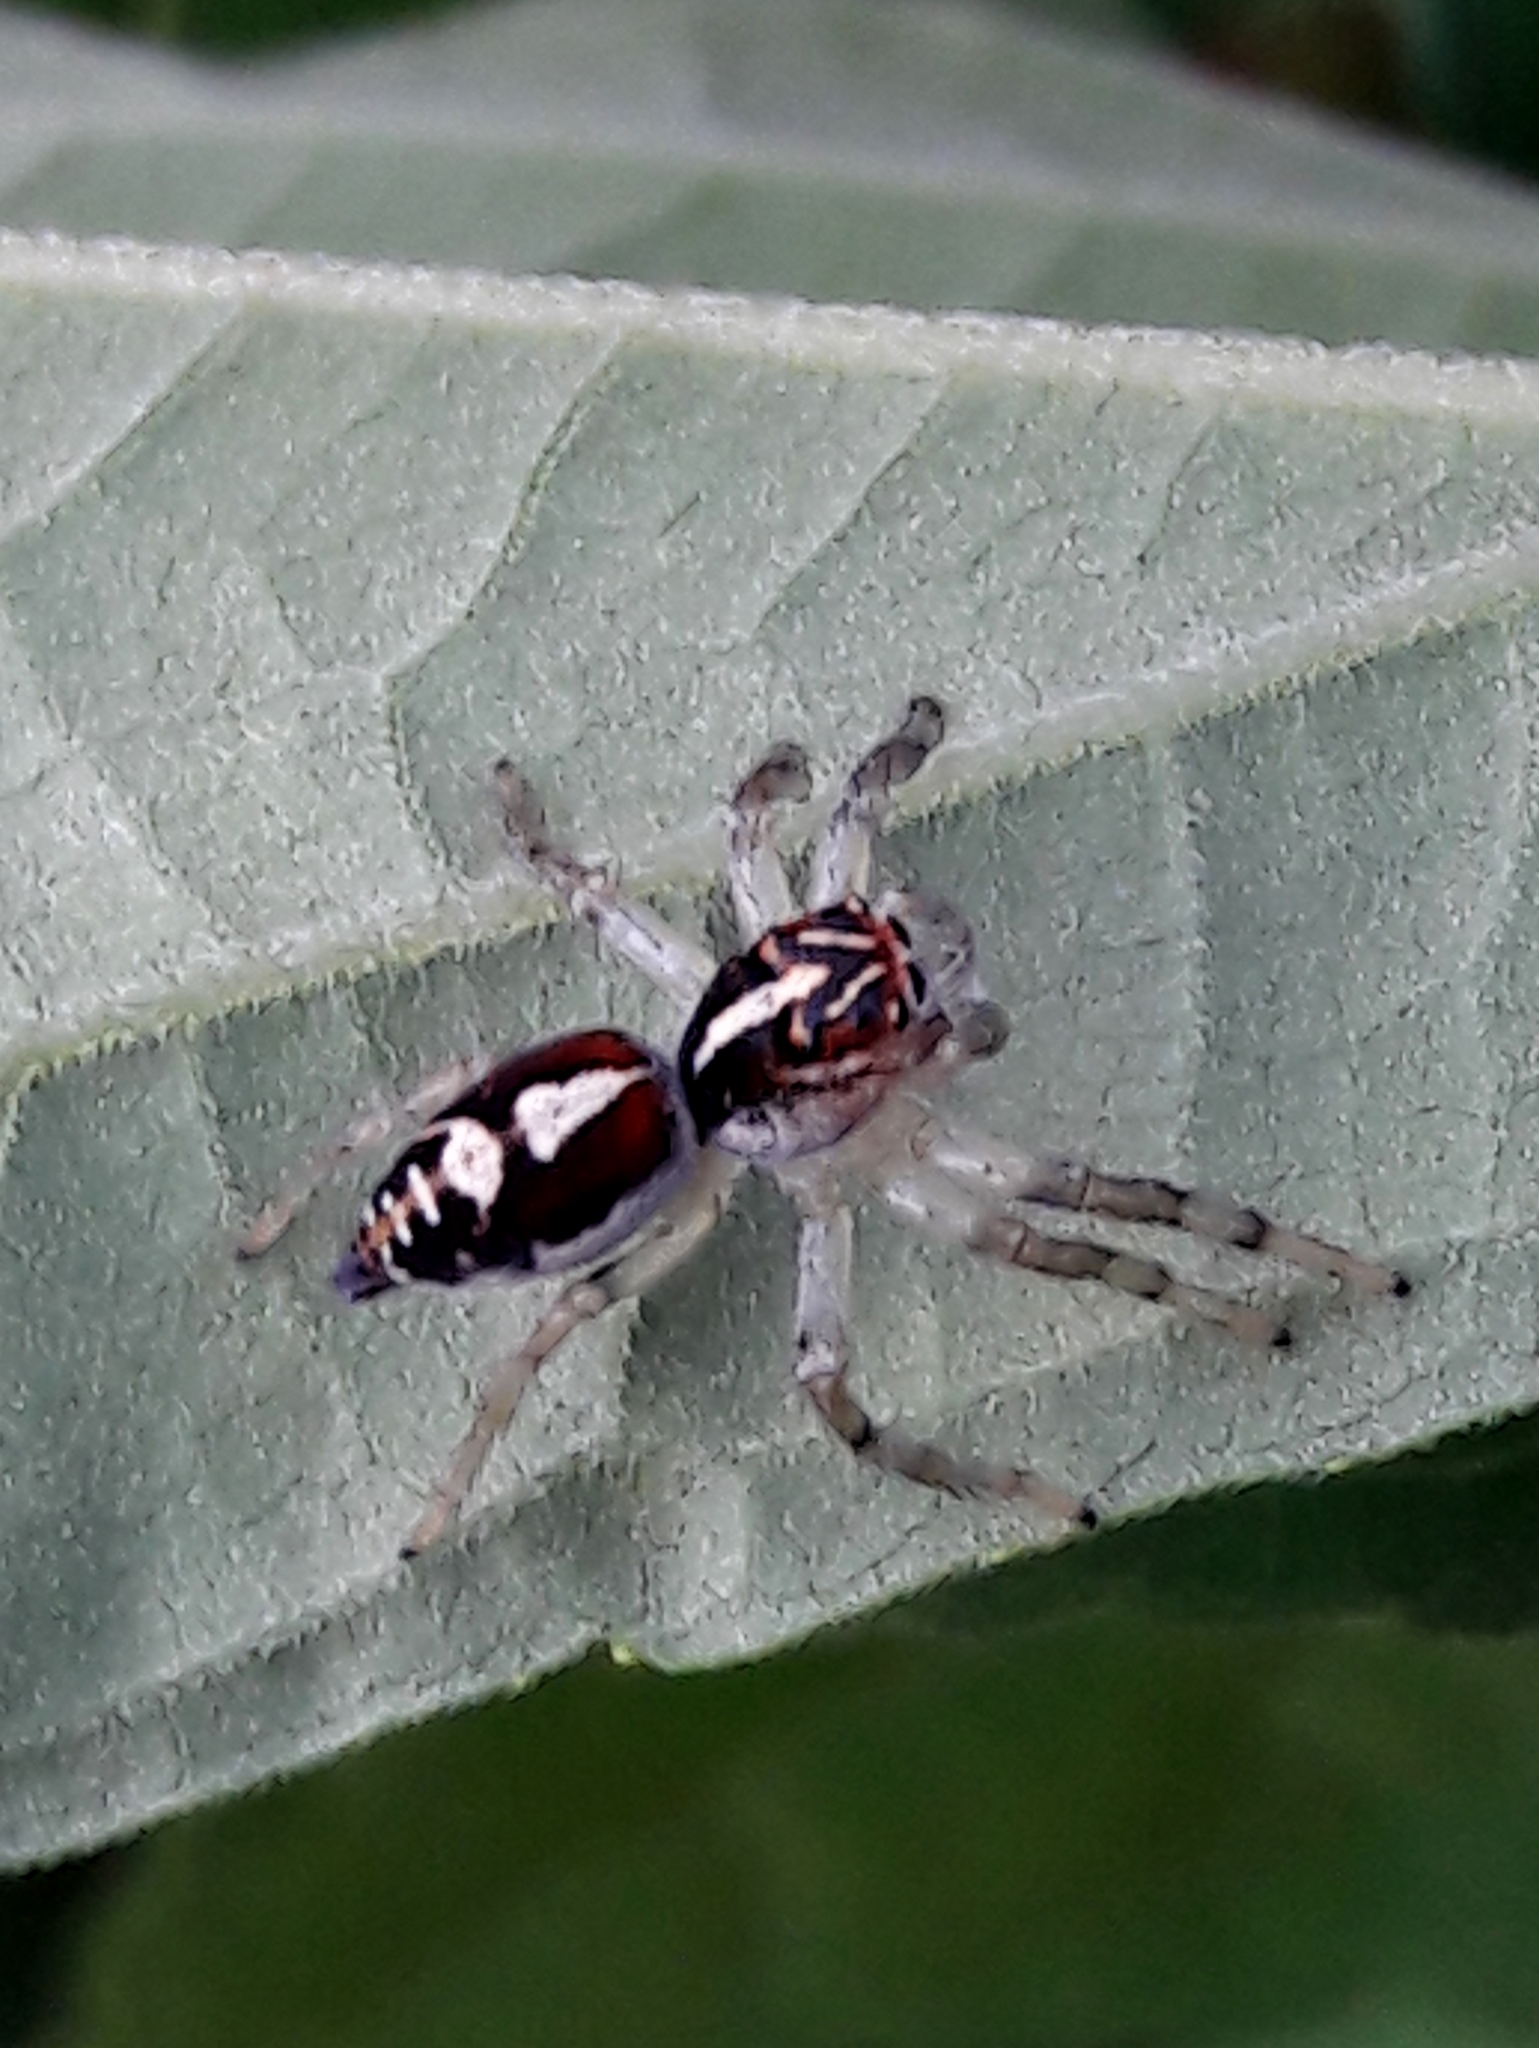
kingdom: Animalia
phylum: Arthropoda
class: Arachnida
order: Araneae
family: Salticidae
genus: Frigga
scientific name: Frigga
